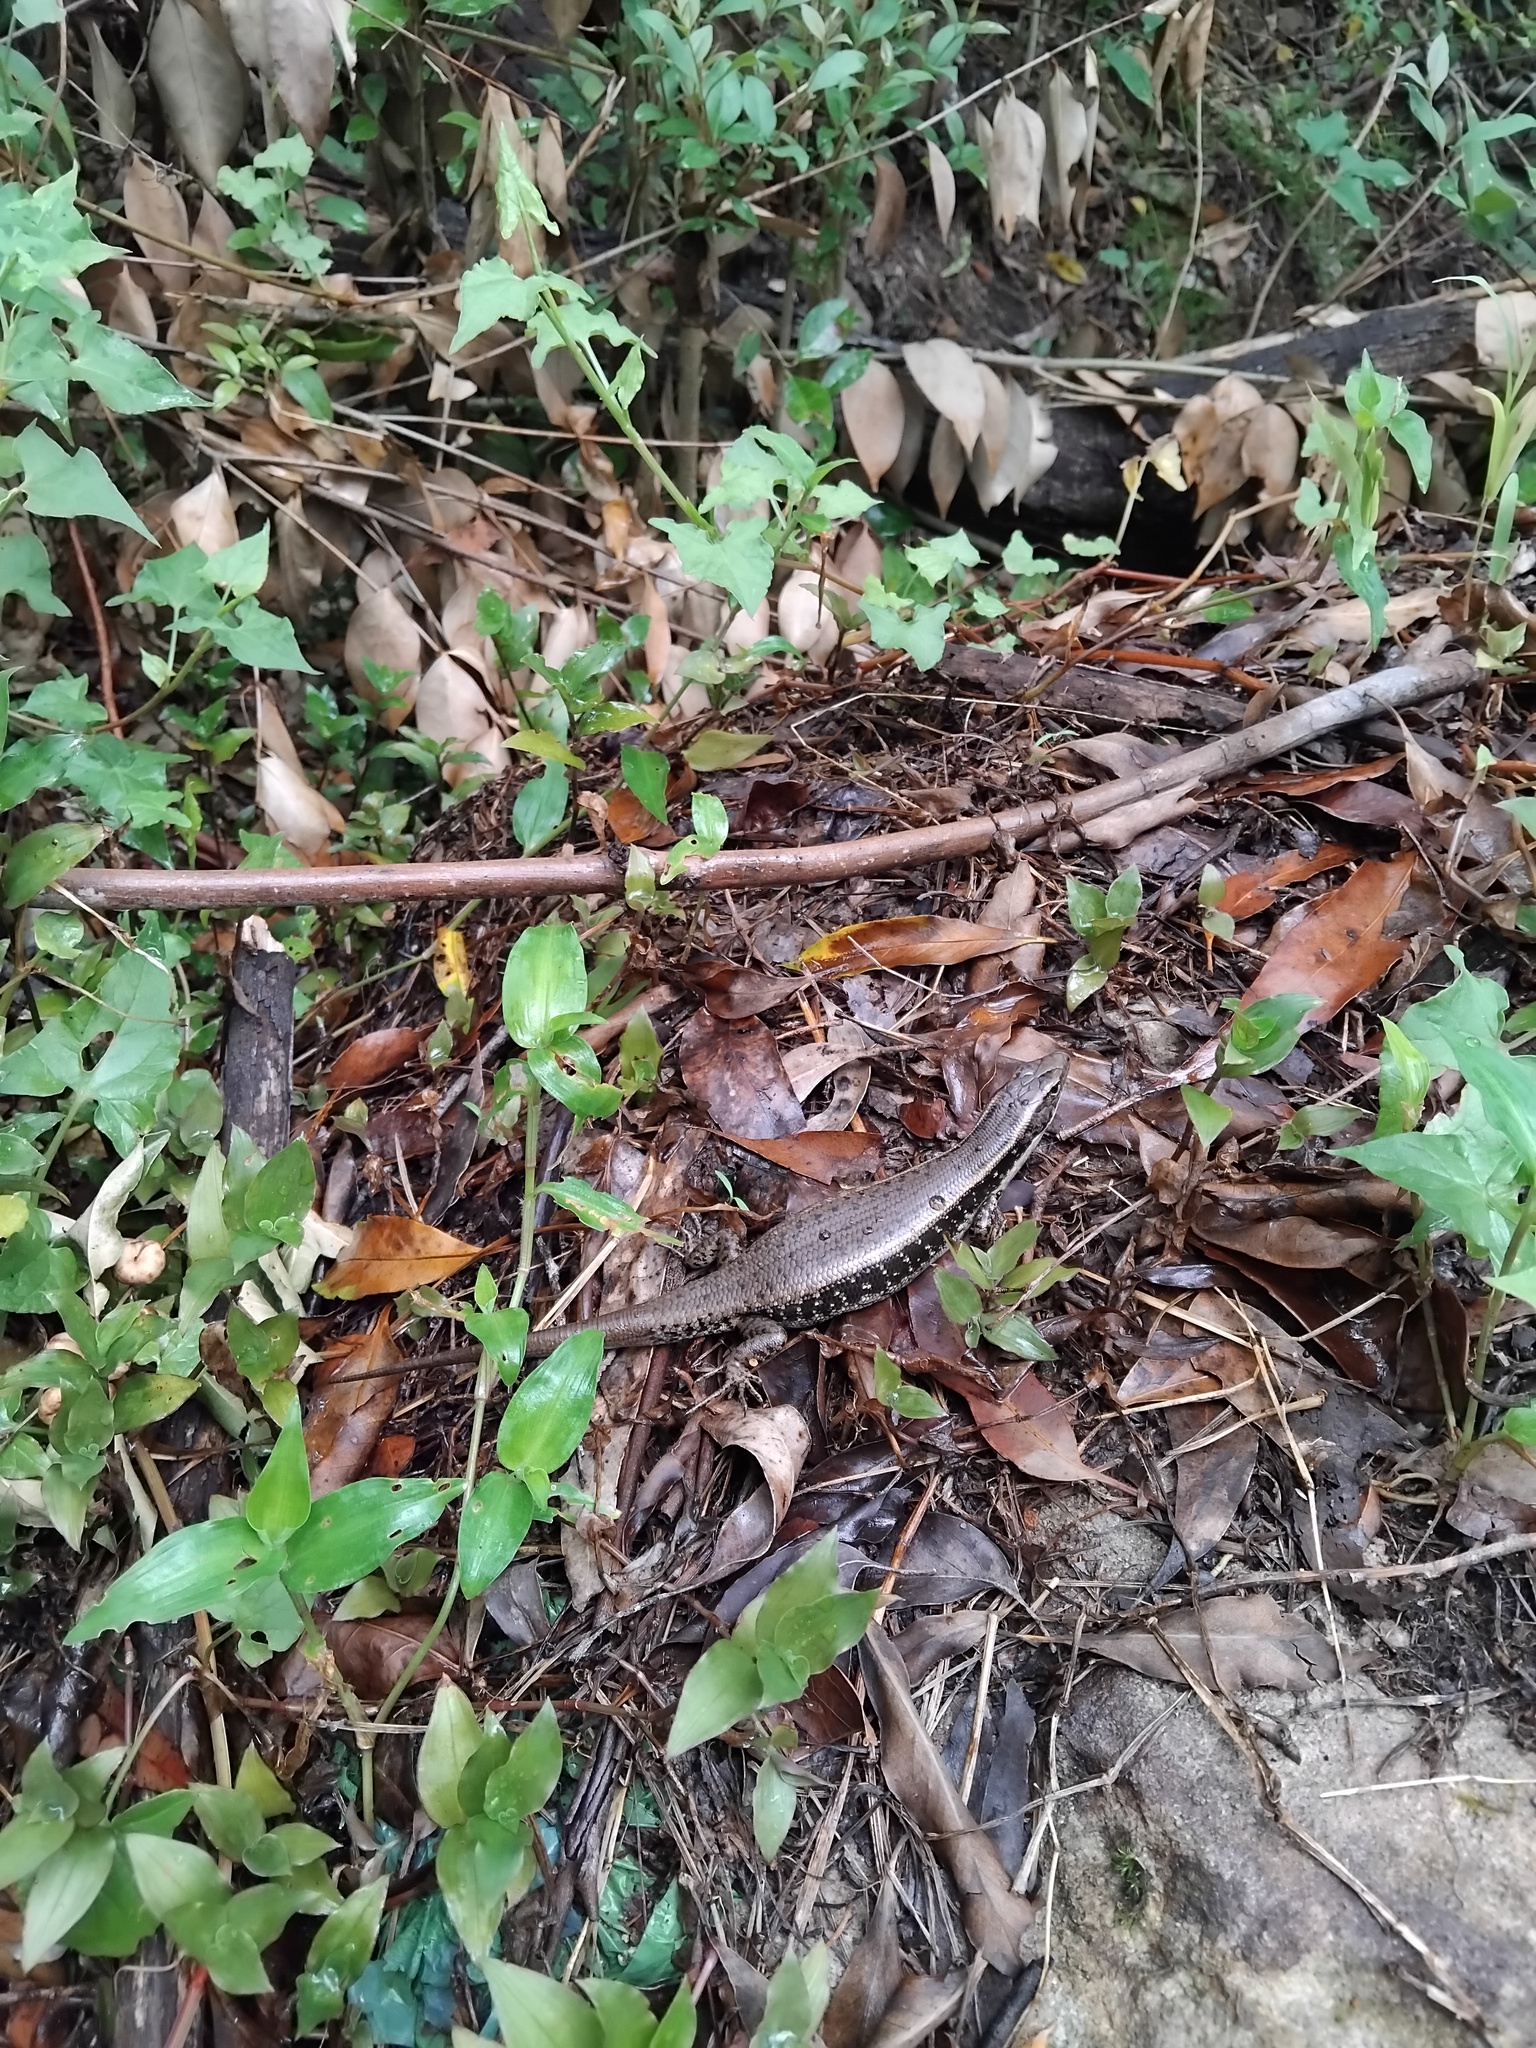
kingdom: Animalia
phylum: Chordata
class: Squamata
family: Scincidae
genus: Eulamprus
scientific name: Eulamprus quoyii
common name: Eastern water skink
